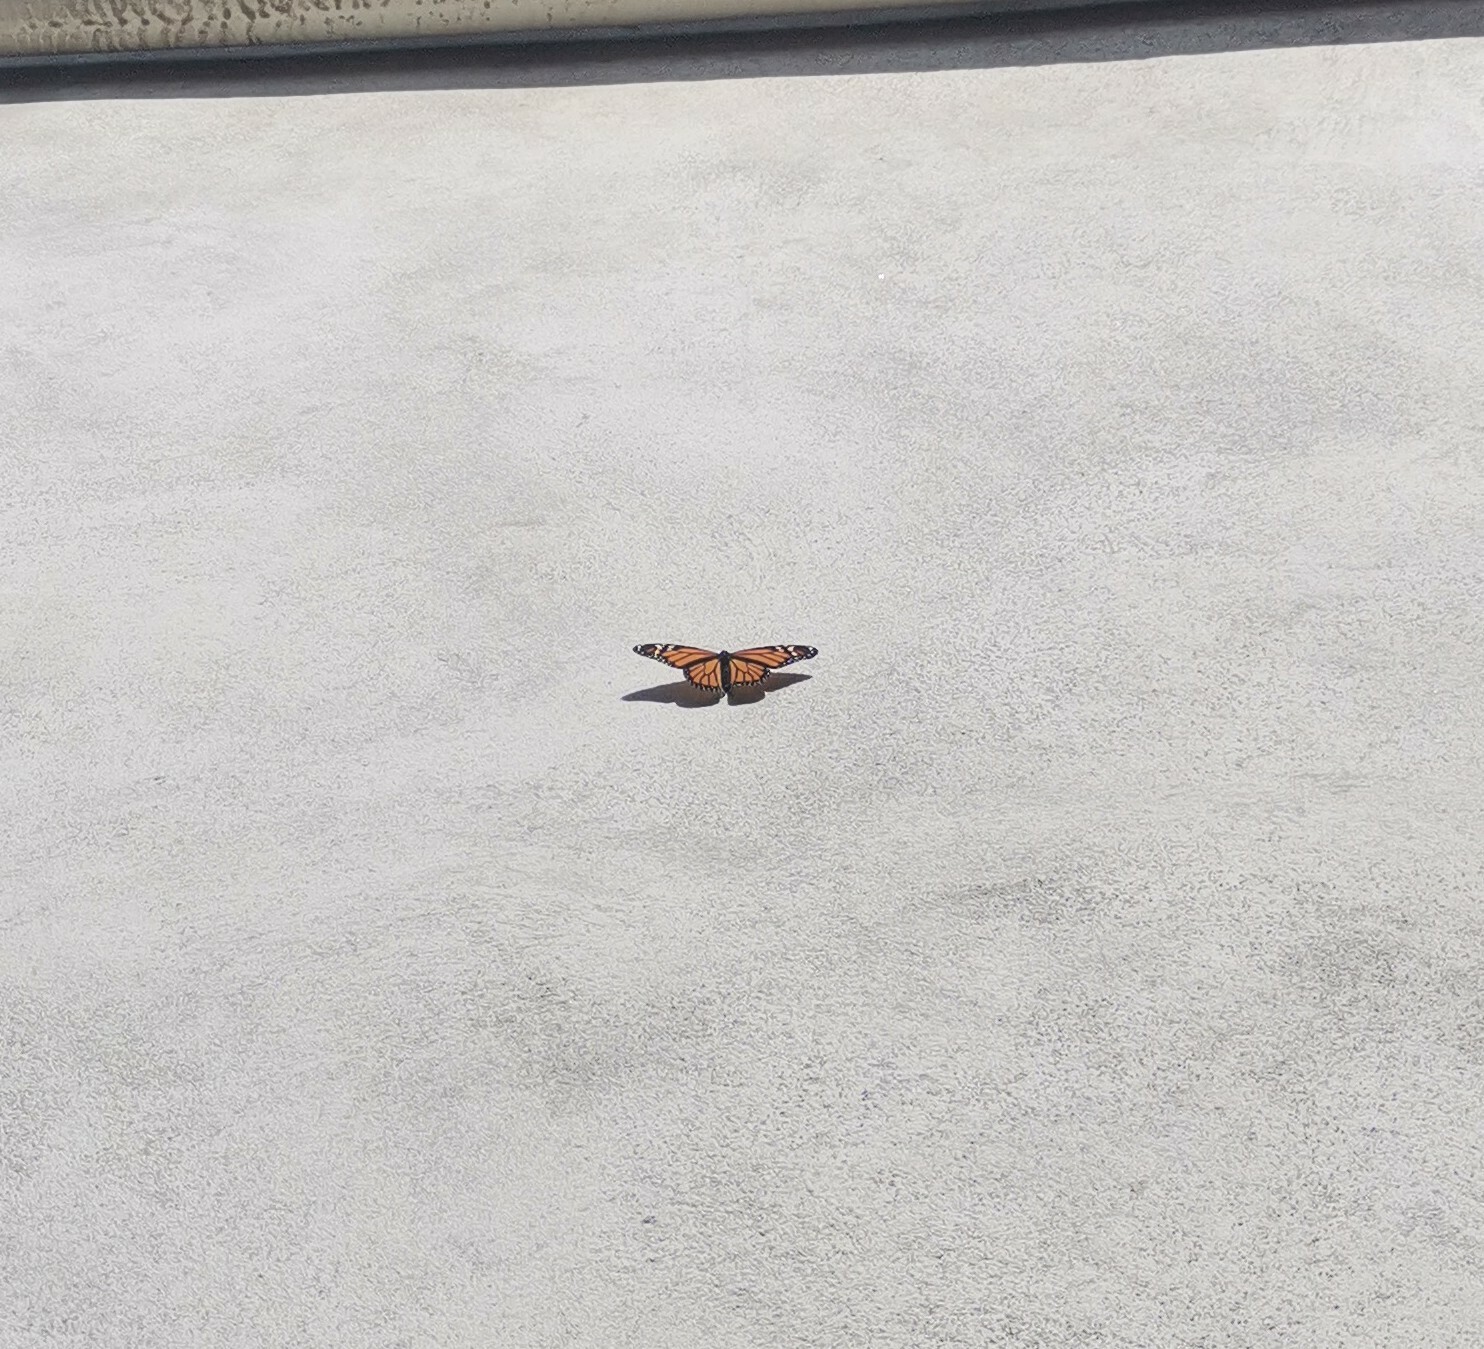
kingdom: Animalia
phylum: Arthropoda
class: Insecta
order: Lepidoptera
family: Nymphalidae
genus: Danaus
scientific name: Danaus plexippus
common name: Monarch
